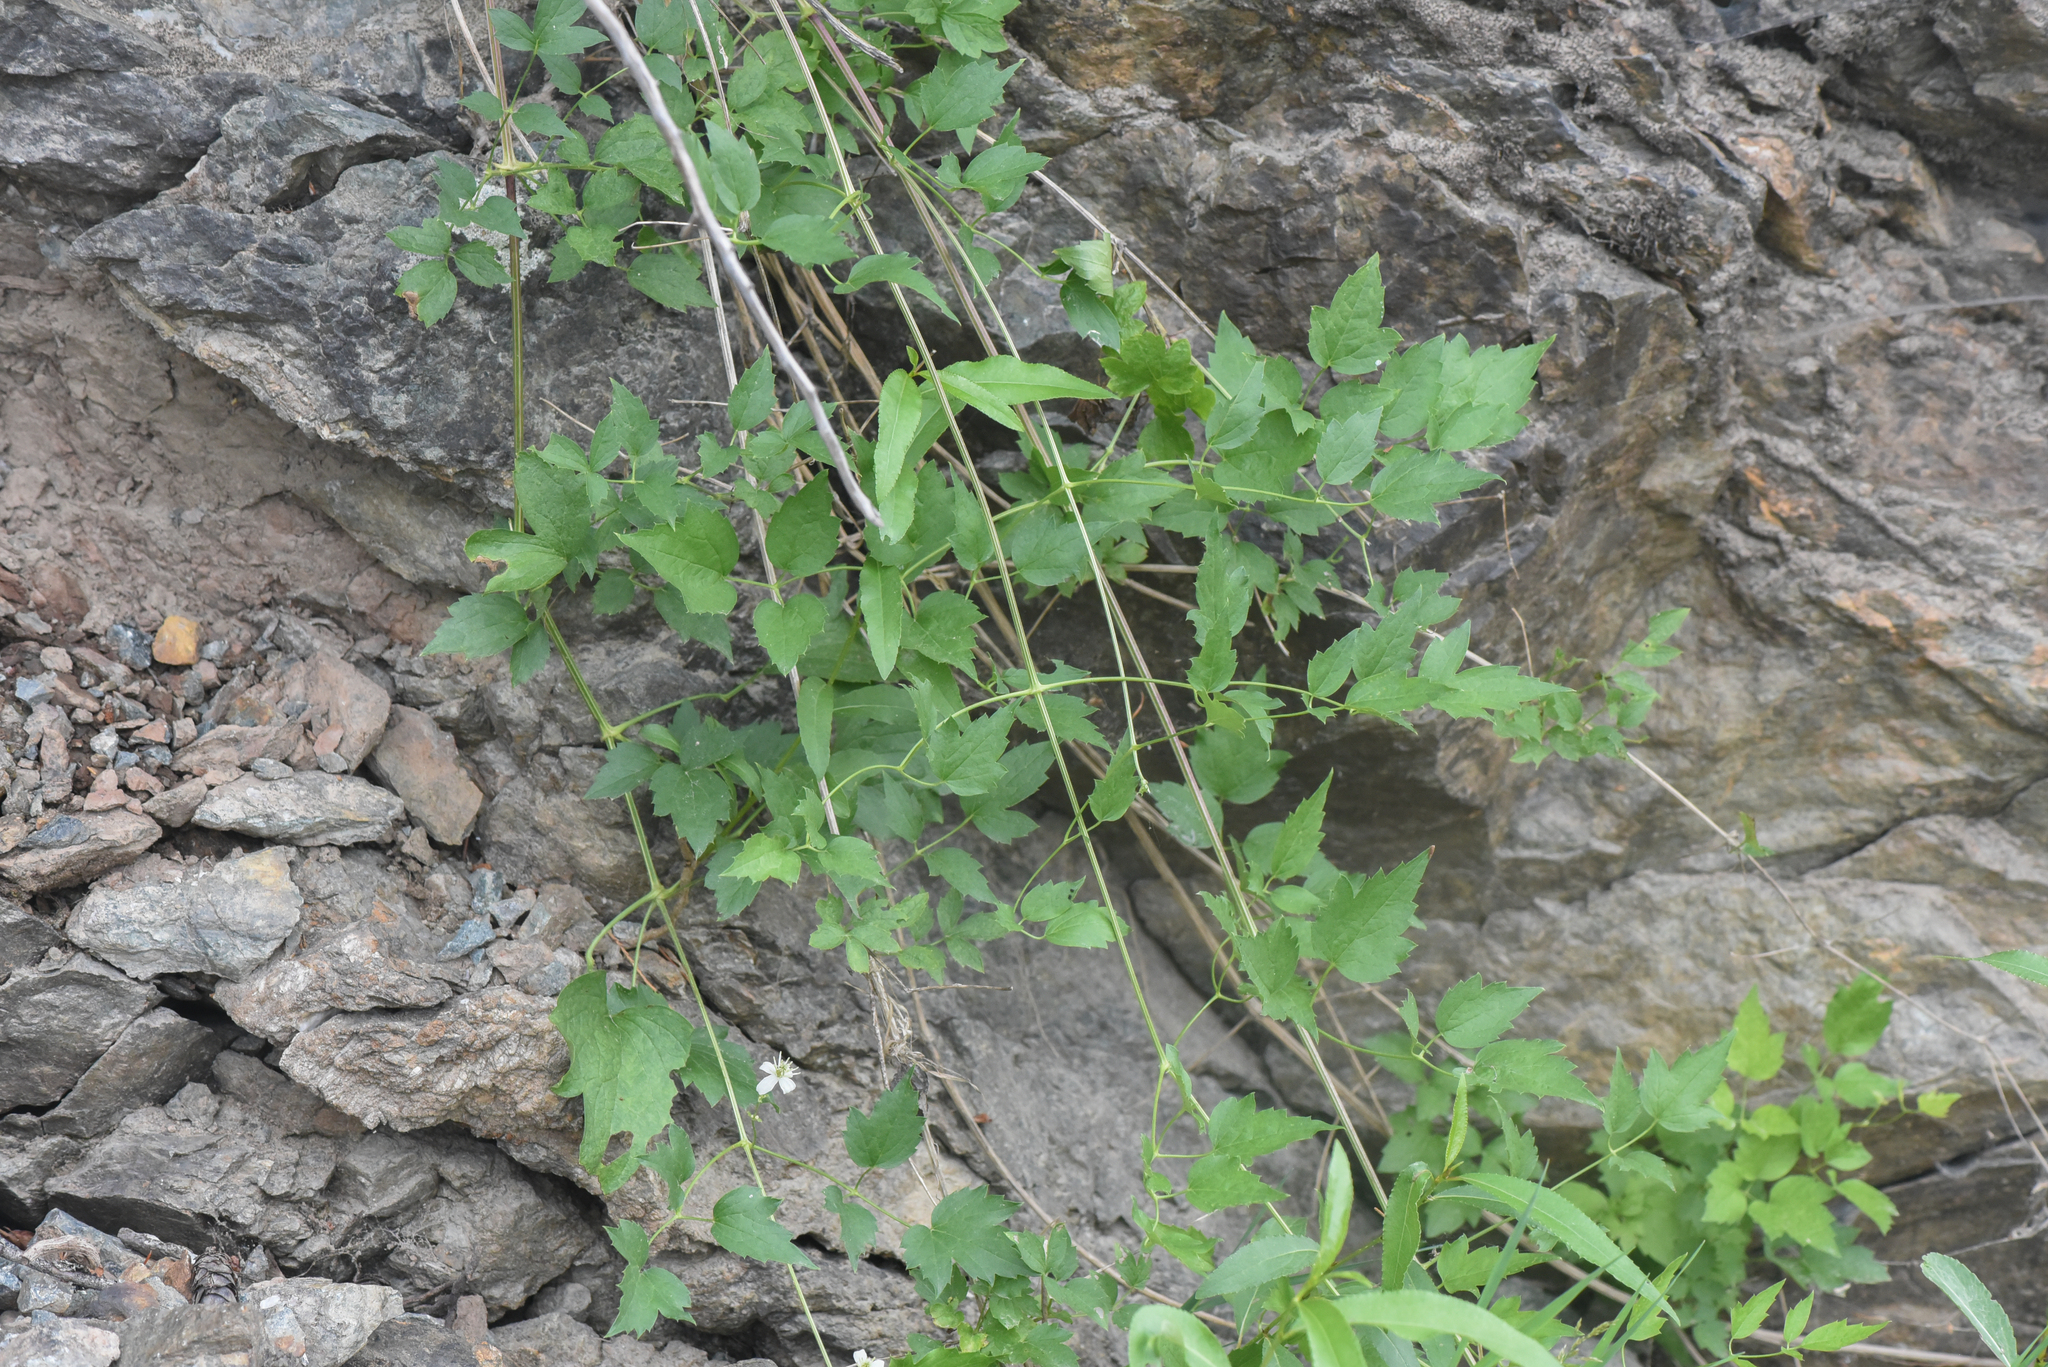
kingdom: Plantae
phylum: Tracheophyta
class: Magnoliopsida
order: Ranunculales
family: Ranunculaceae
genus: Clematis
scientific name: Clematis ligusticifolia
